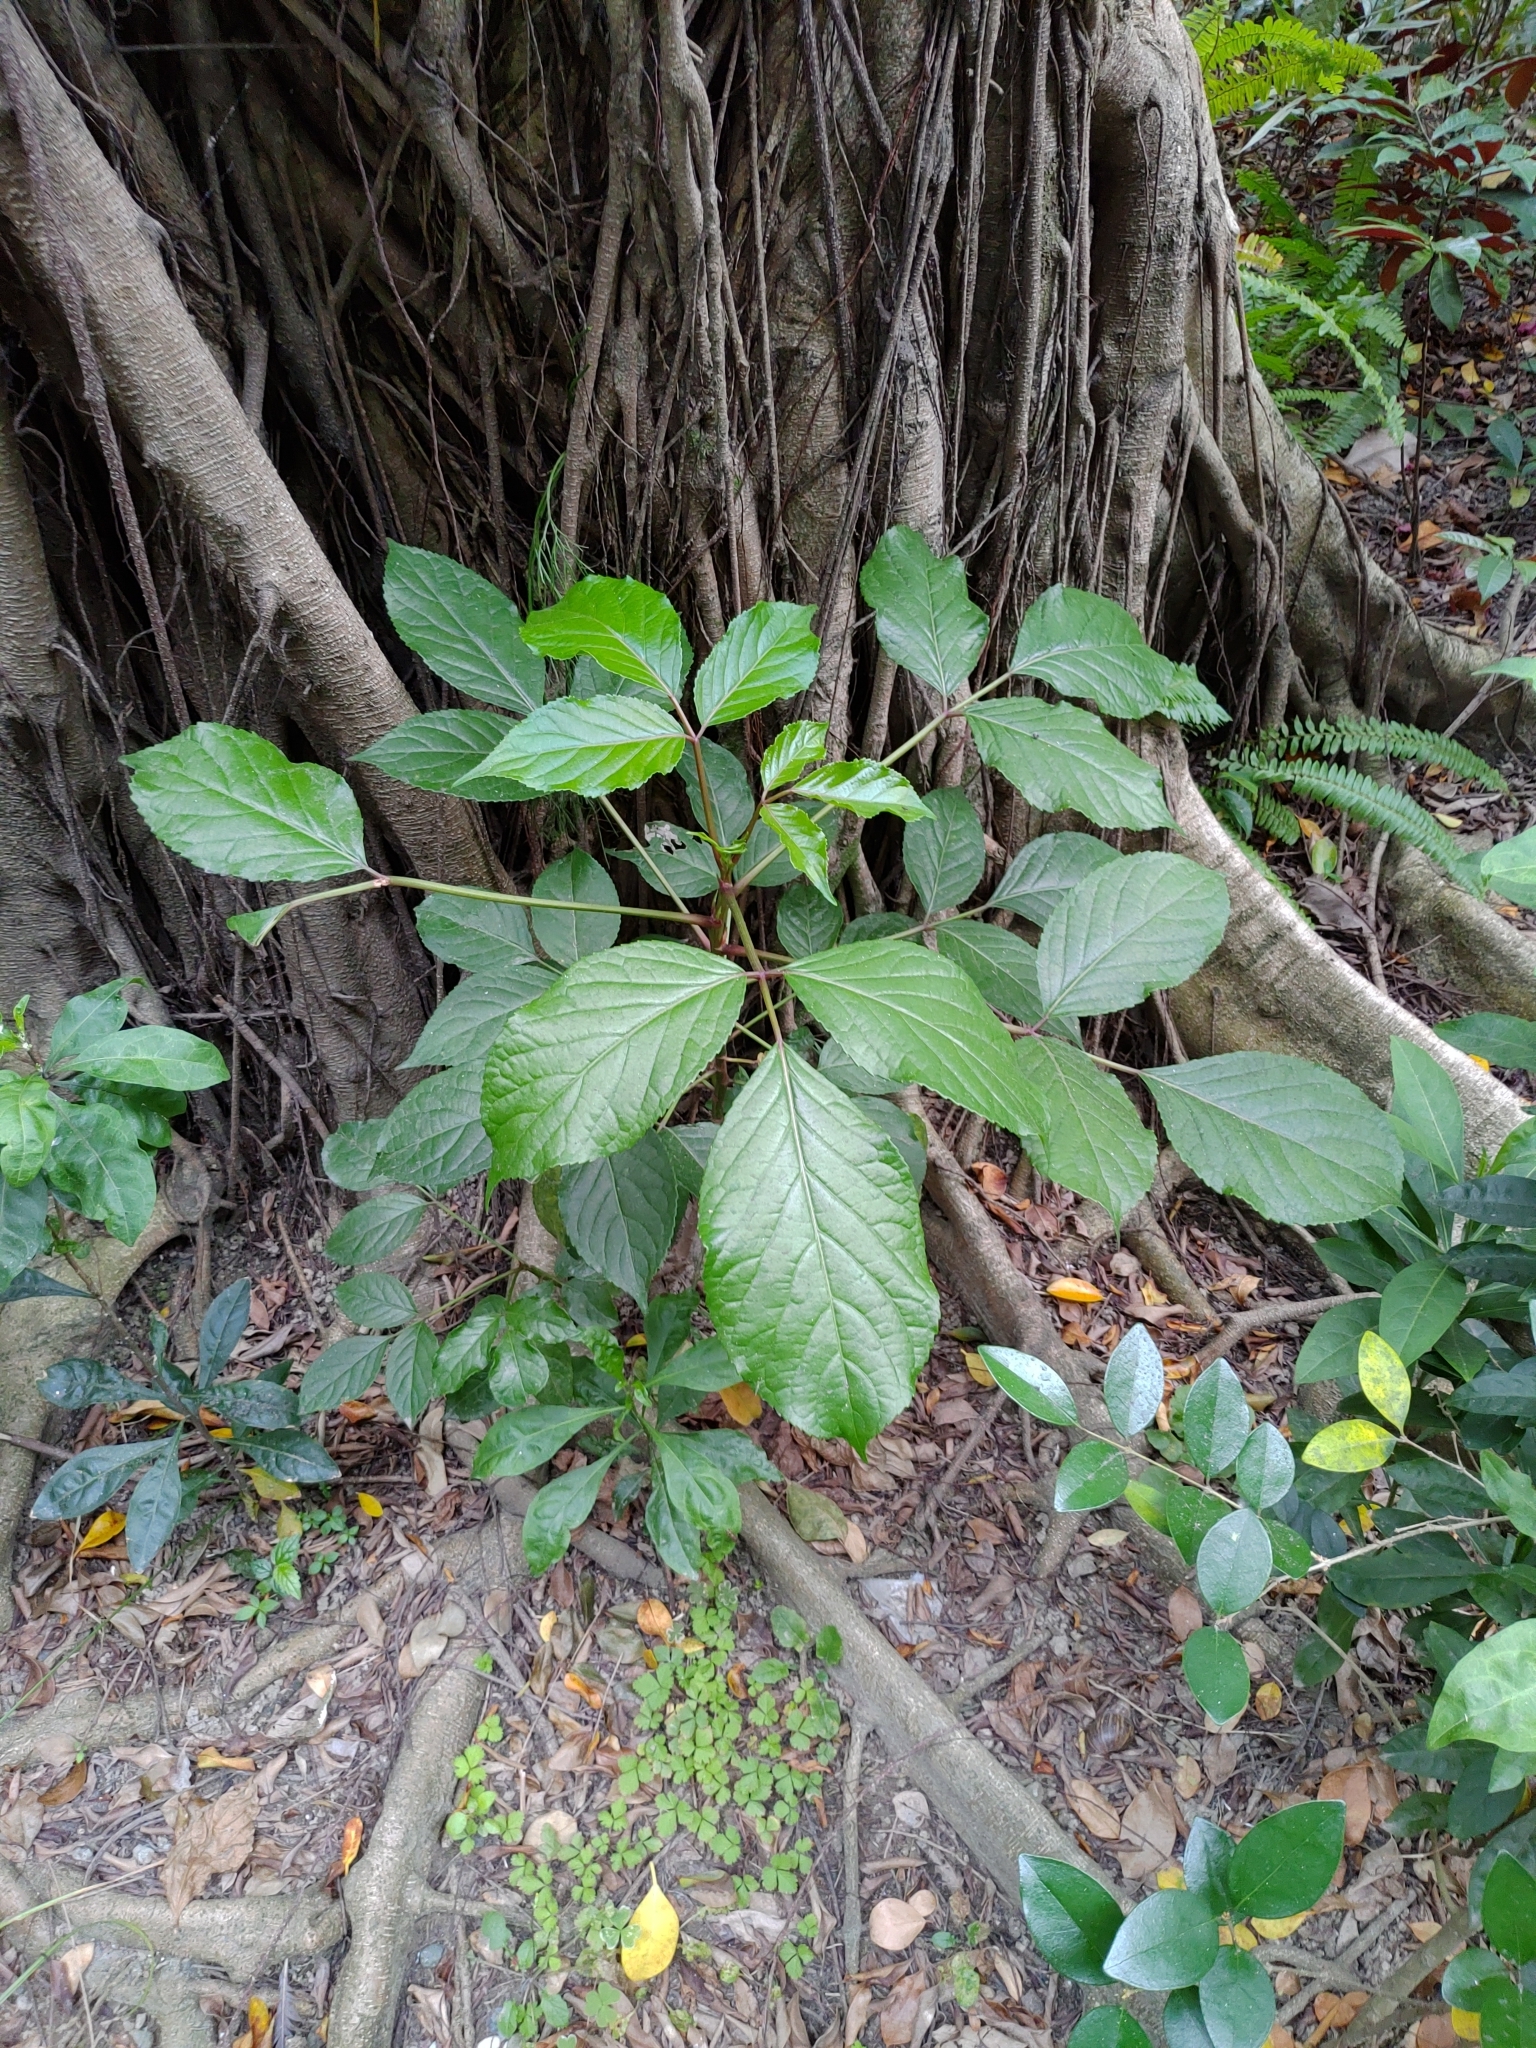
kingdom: Plantae
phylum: Tracheophyta
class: Magnoliopsida
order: Malpighiales
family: Phyllanthaceae
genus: Bischofia
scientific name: Bischofia javanica
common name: Javanese bishopwood
